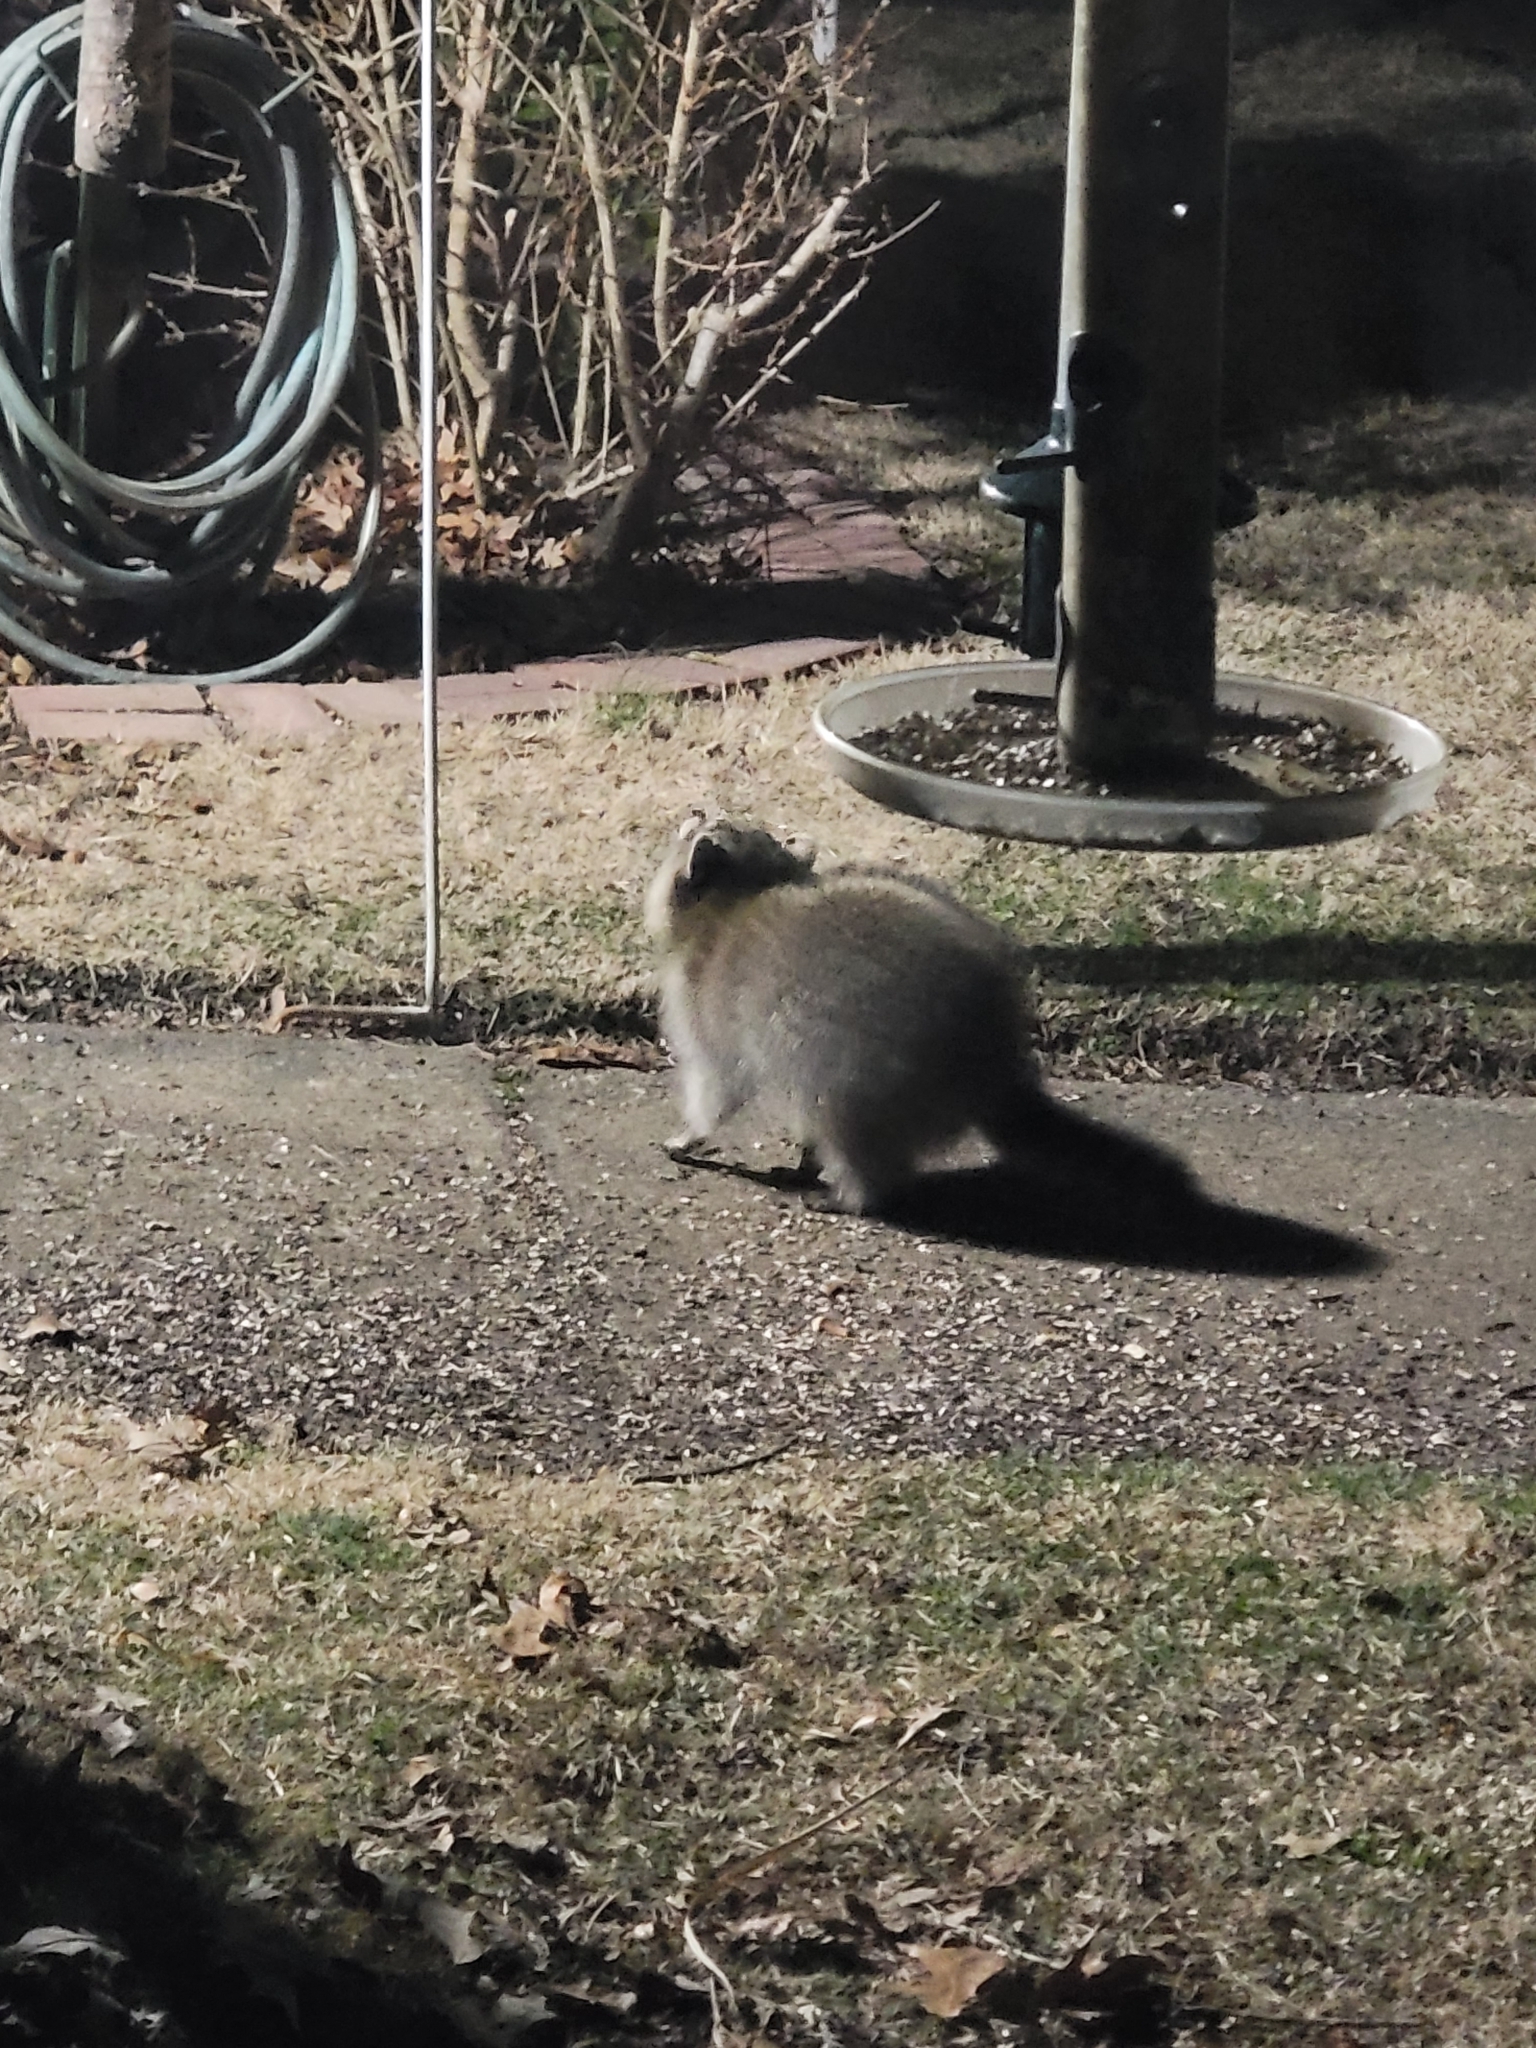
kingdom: Animalia
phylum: Chordata
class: Mammalia
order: Carnivora
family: Procyonidae
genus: Procyon
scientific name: Procyon lotor
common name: Raccoon
